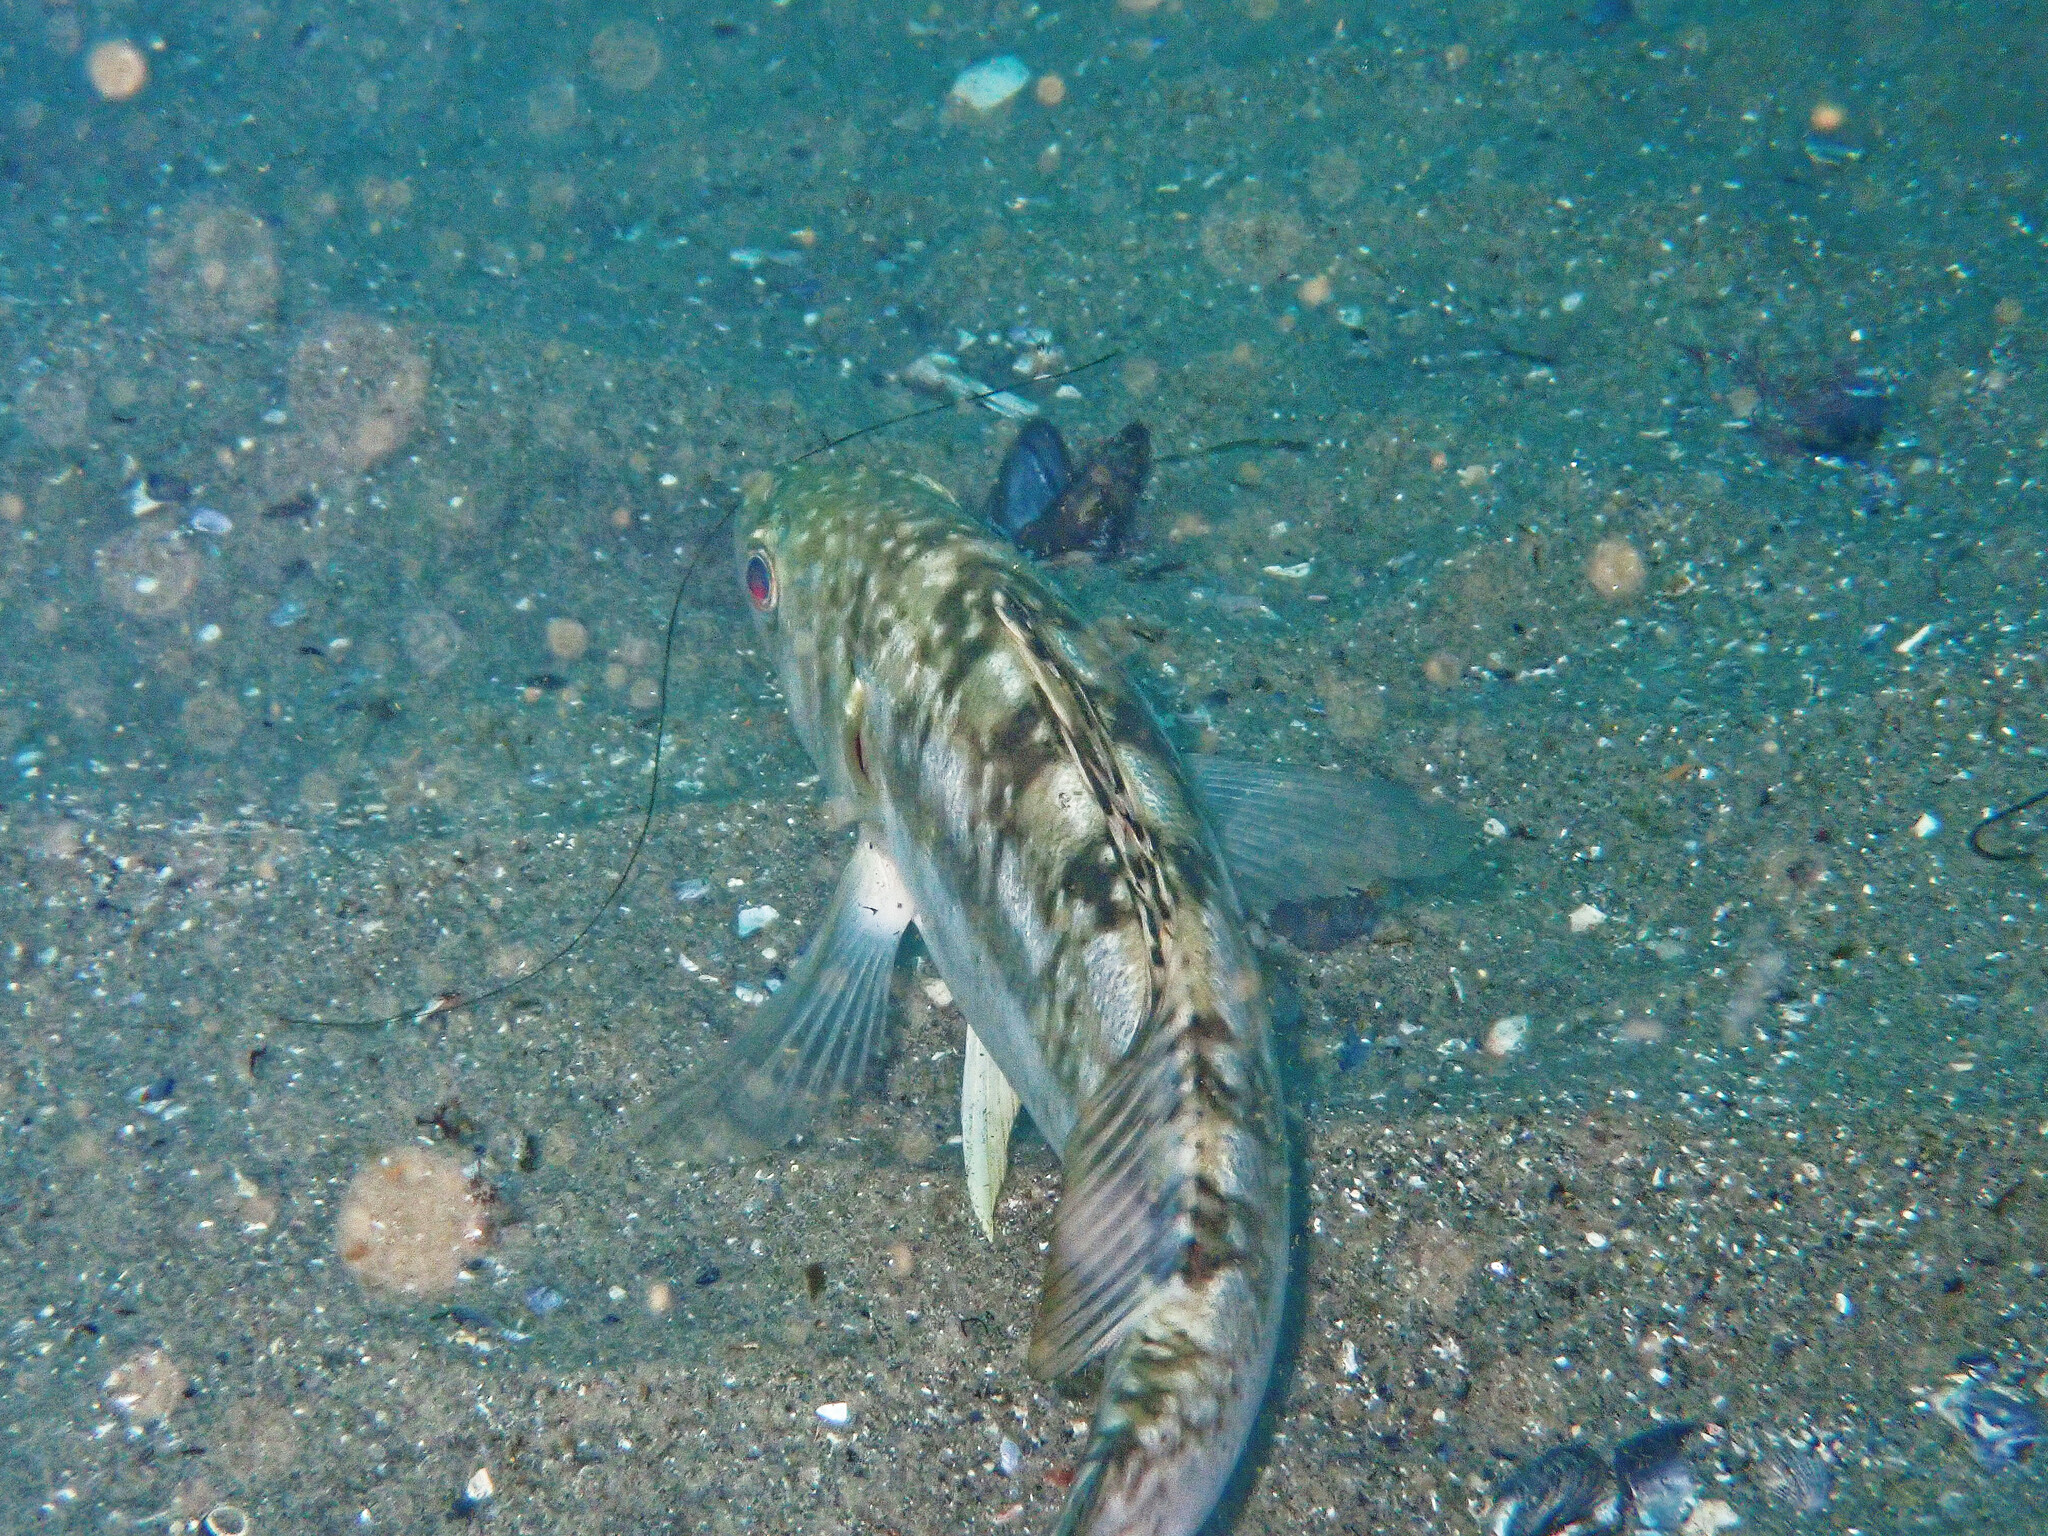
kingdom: Animalia
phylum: Chordata
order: Perciformes
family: Serranidae
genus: Paralabrax
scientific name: Paralabrax clathratus
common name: Kelp bass
